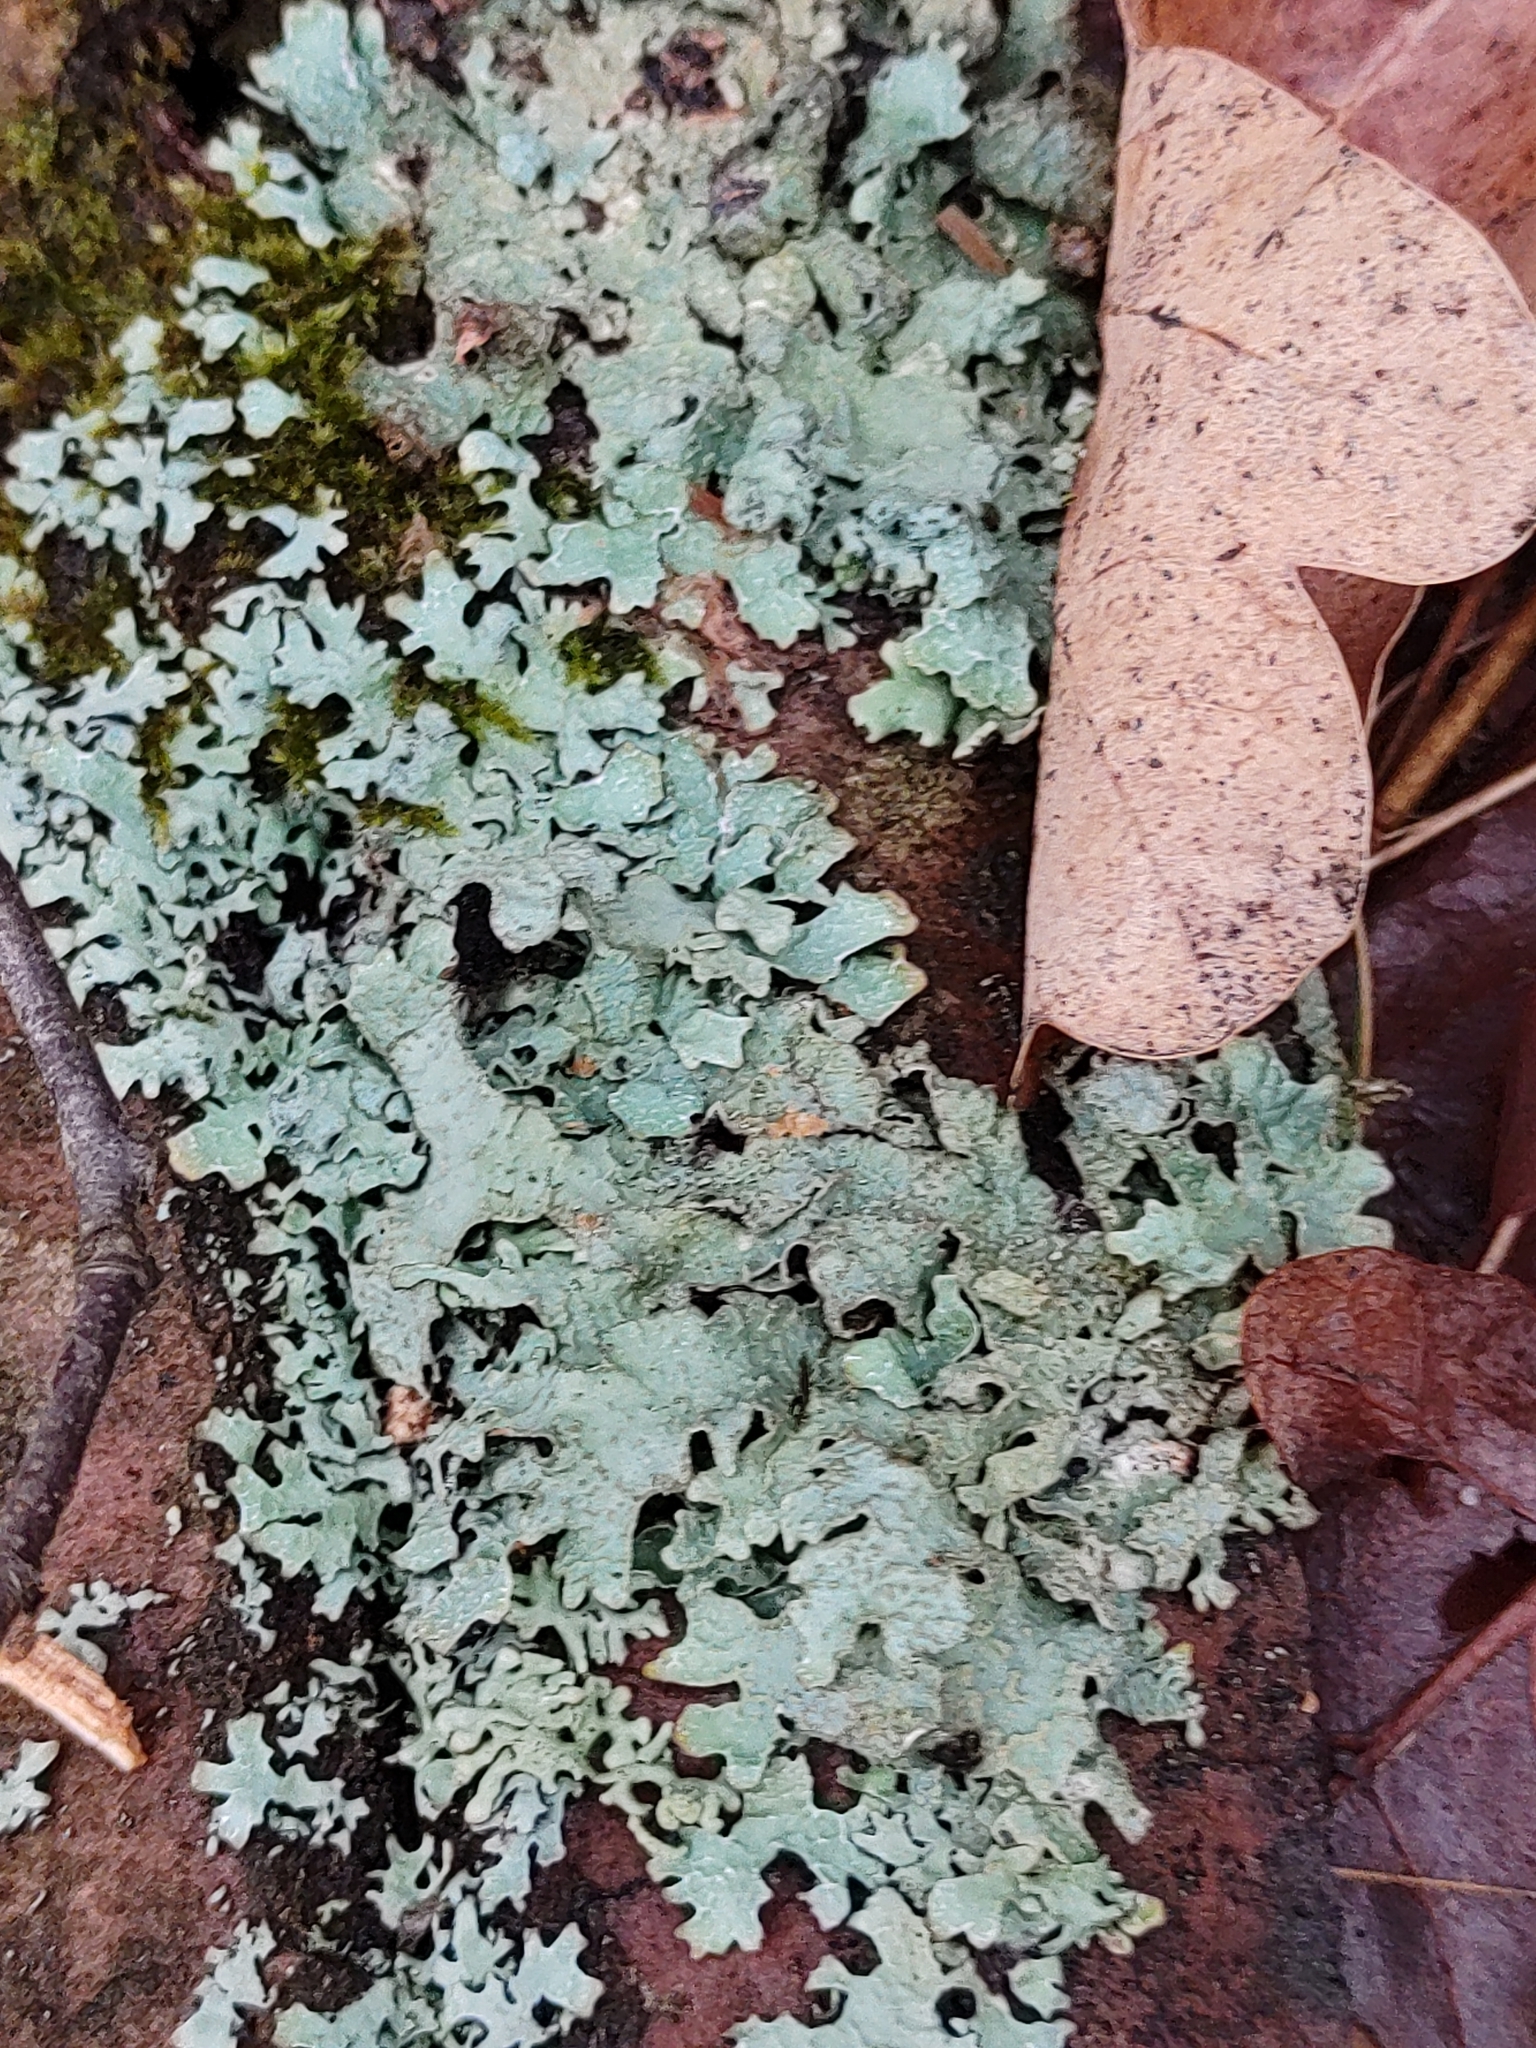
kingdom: Fungi
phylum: Ascomycota
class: Lecanoromycetes
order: Lecanorales
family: Parmeliaceae
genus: Parmelia
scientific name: Parmelia sulcata
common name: Netted shield lichen
